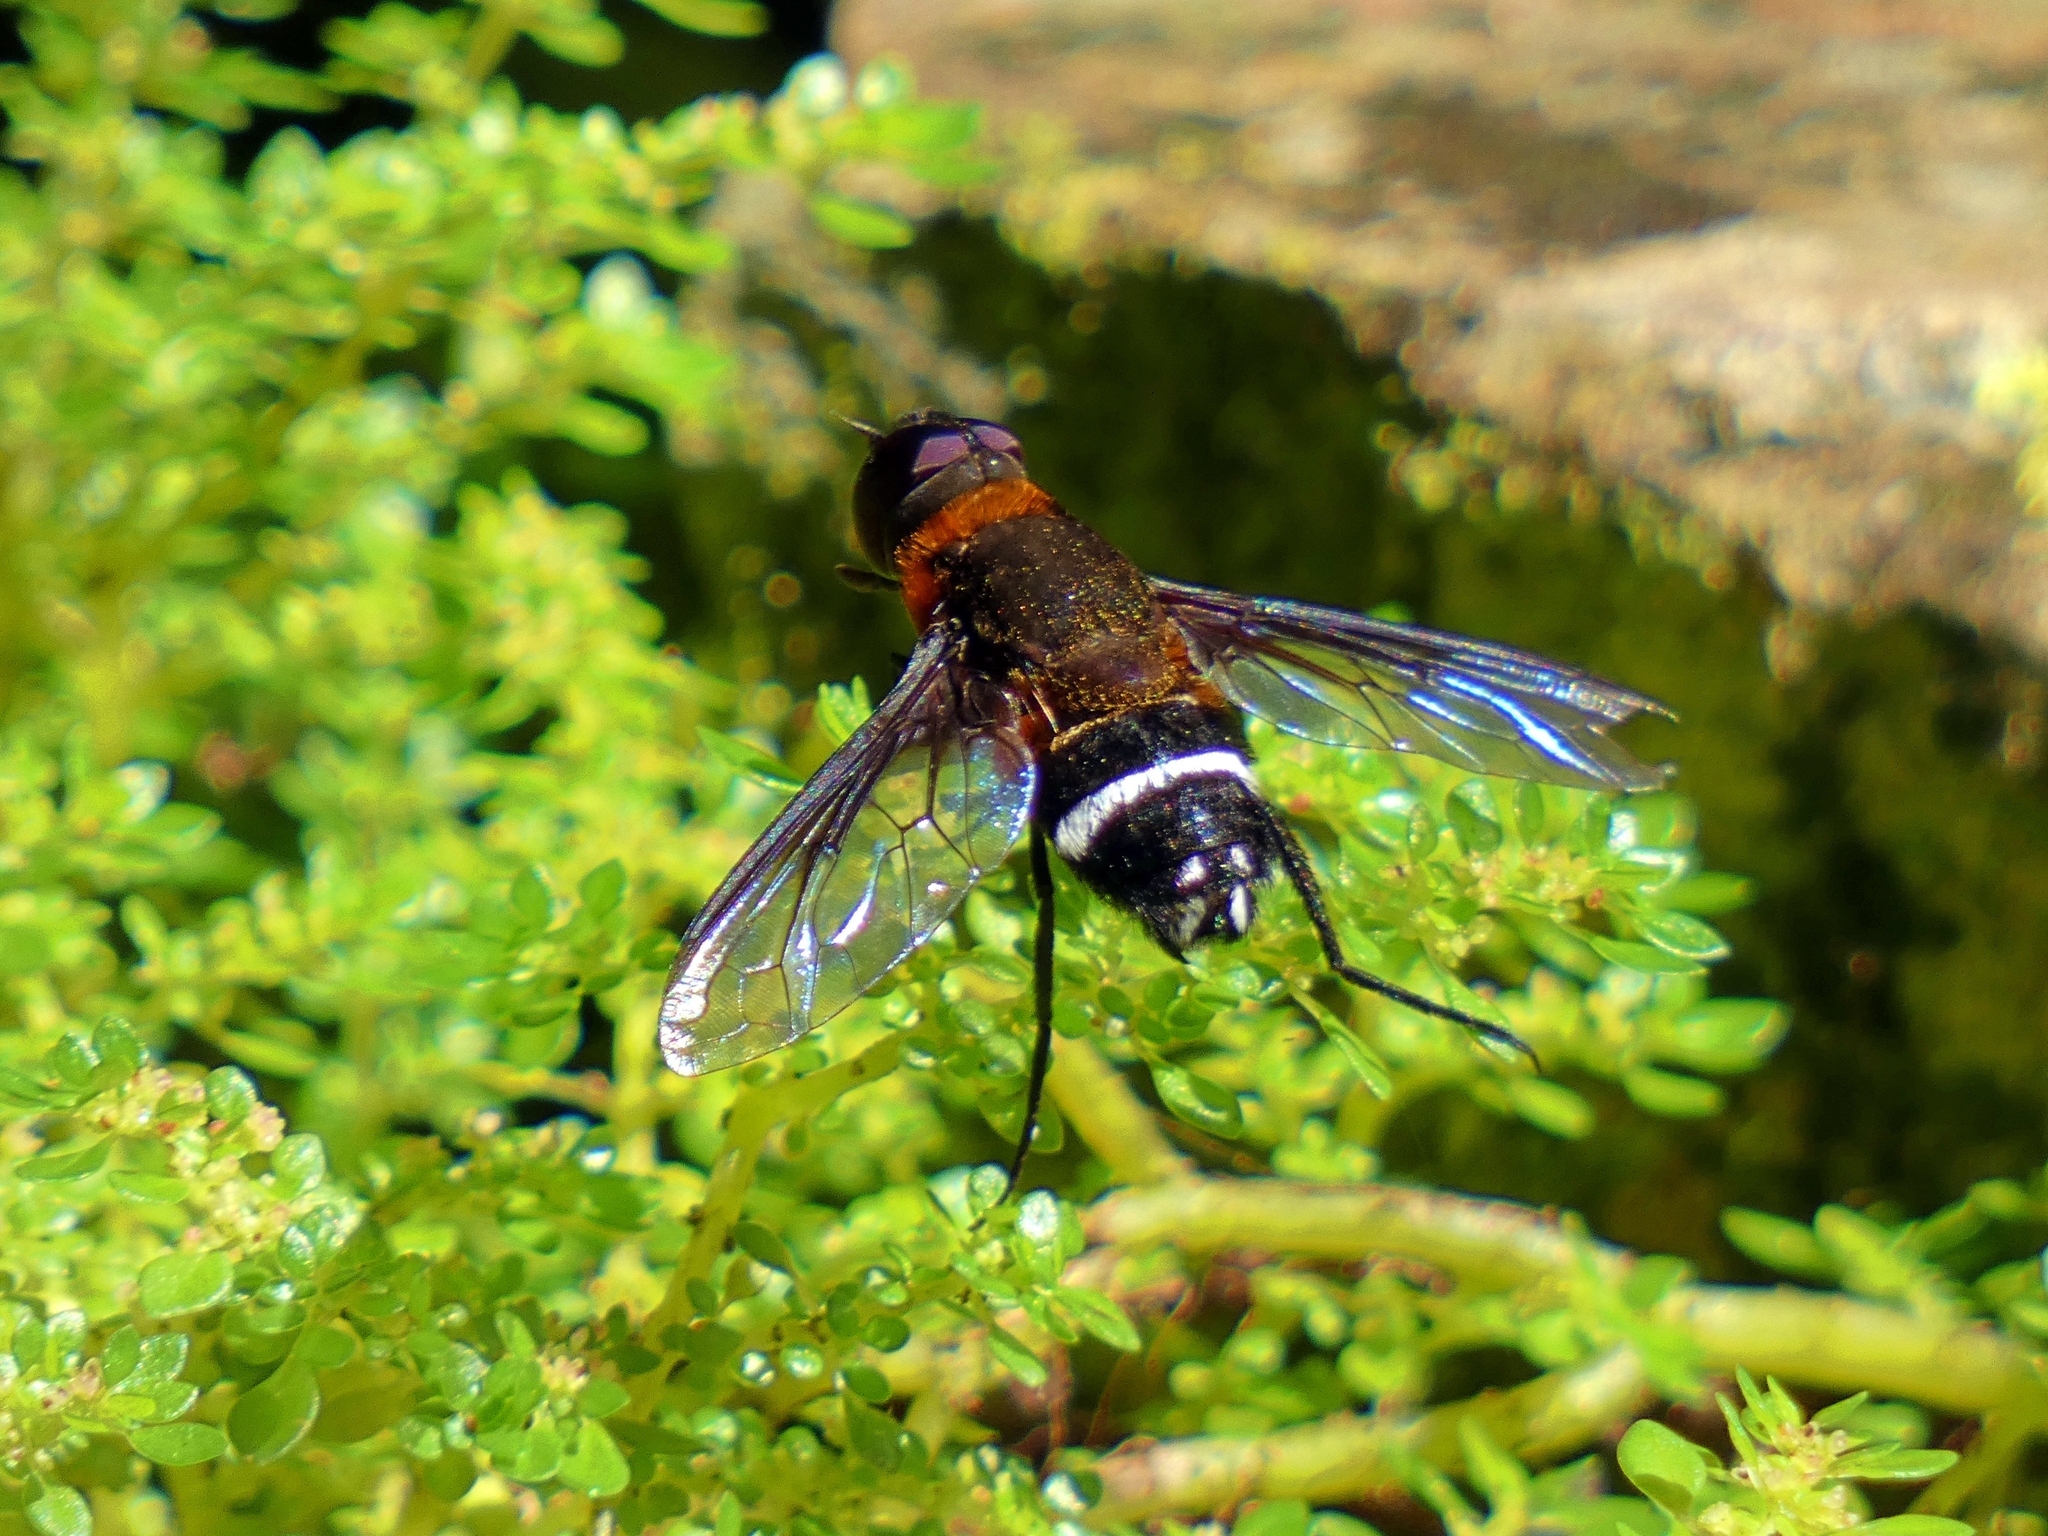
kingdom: Animalia
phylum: Arthropoda
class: Insecta
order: Diptera
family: Bombyliidae
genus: Ligyra
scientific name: Ligyra doryca
